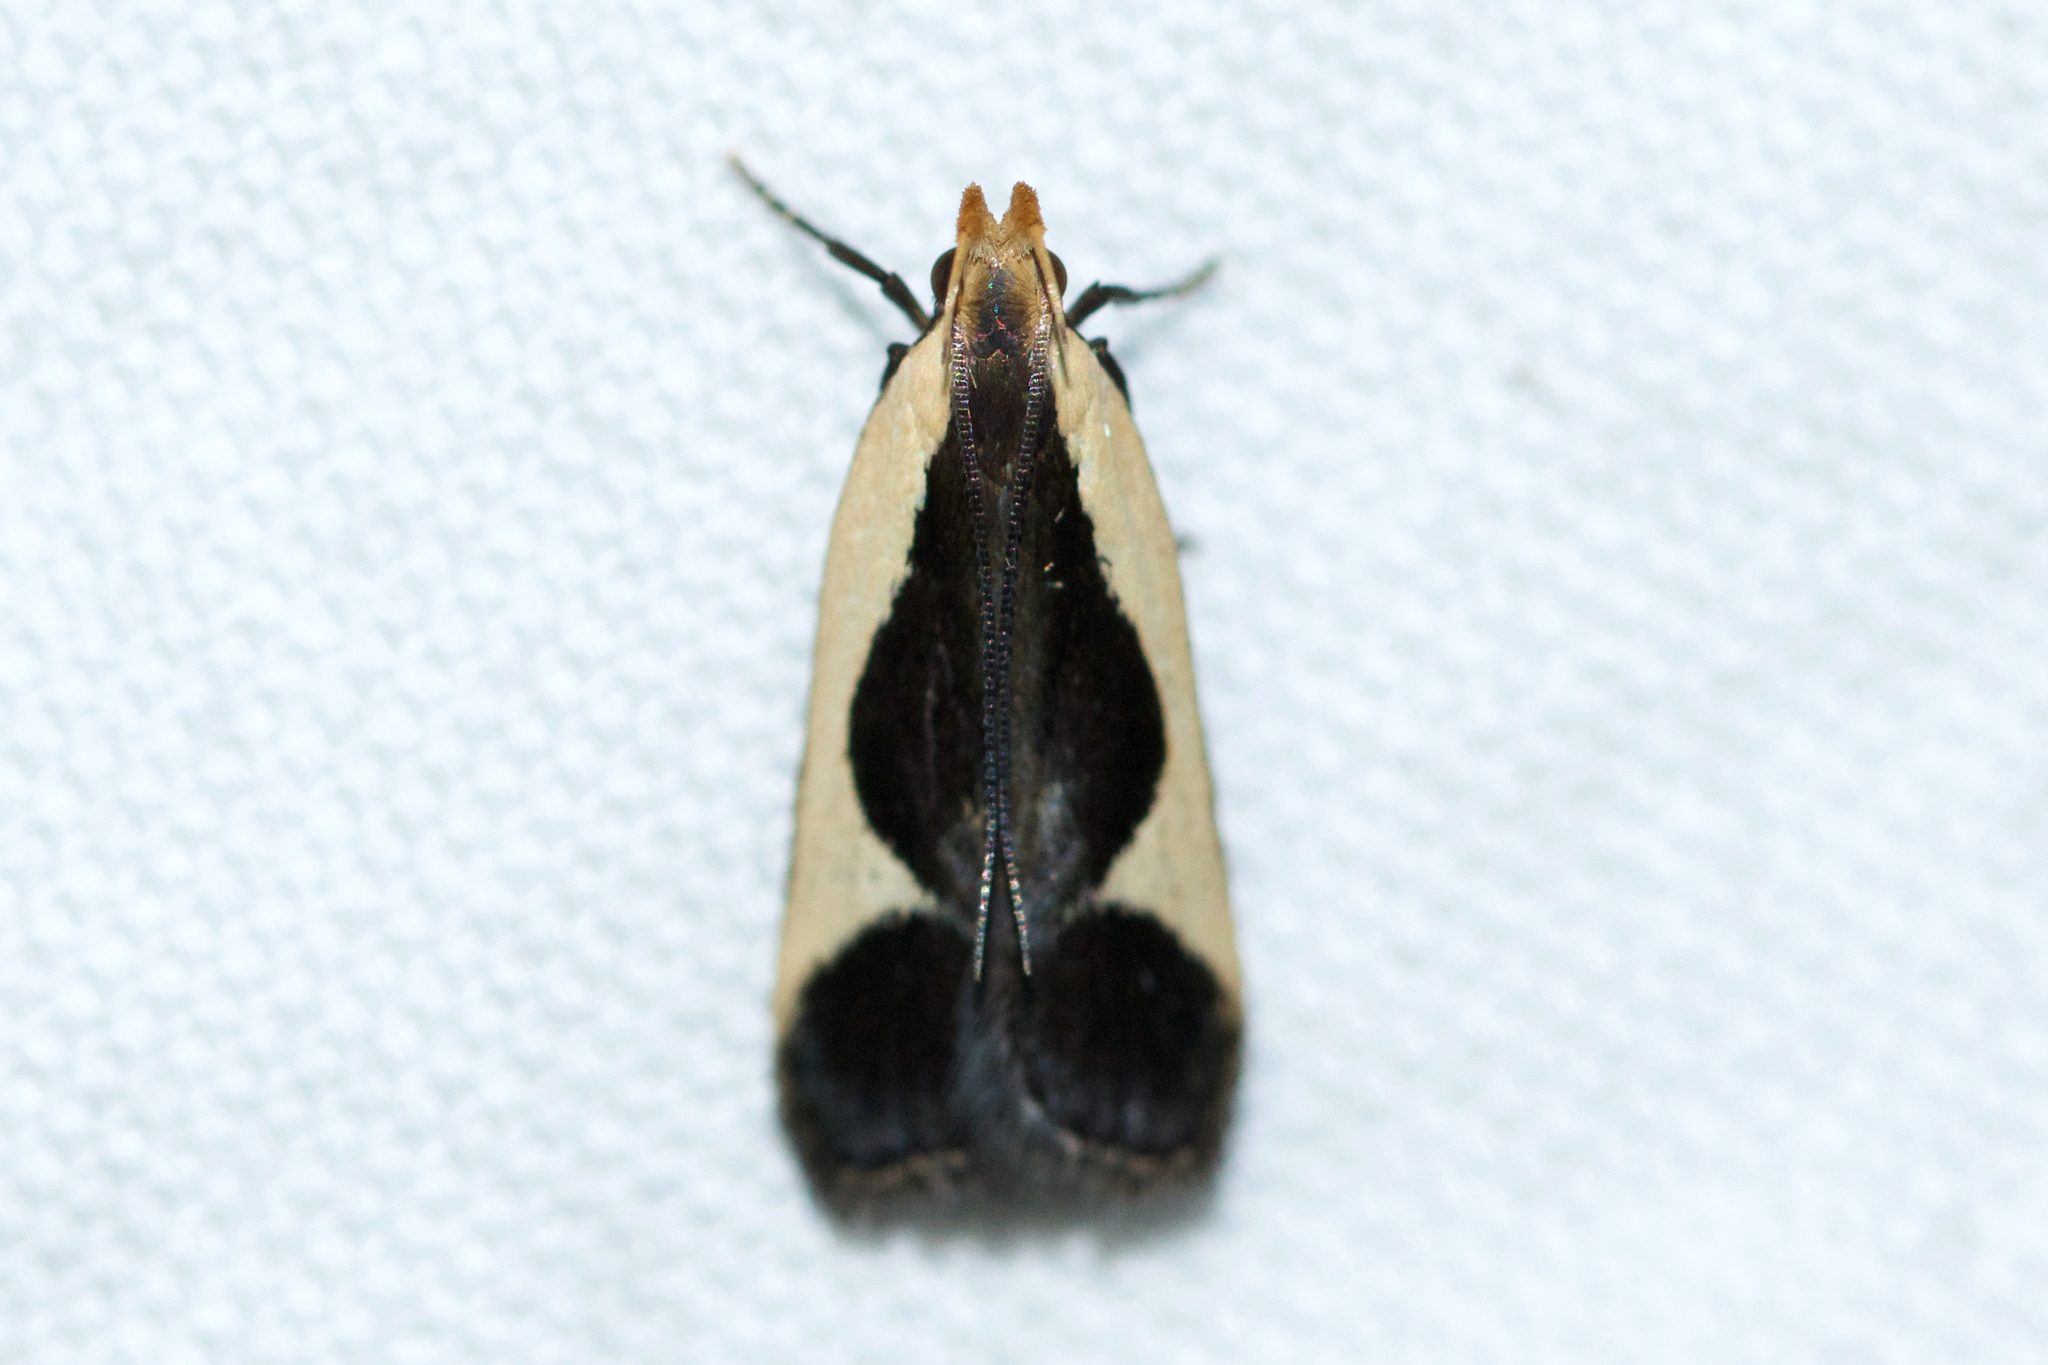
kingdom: Animalia
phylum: Arthropoda
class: Insecta
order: Lepidoptera
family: Gelechiidae
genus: Dichomeris
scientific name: Dichomeris flavocostella
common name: Cream-edged dichomeris moth
